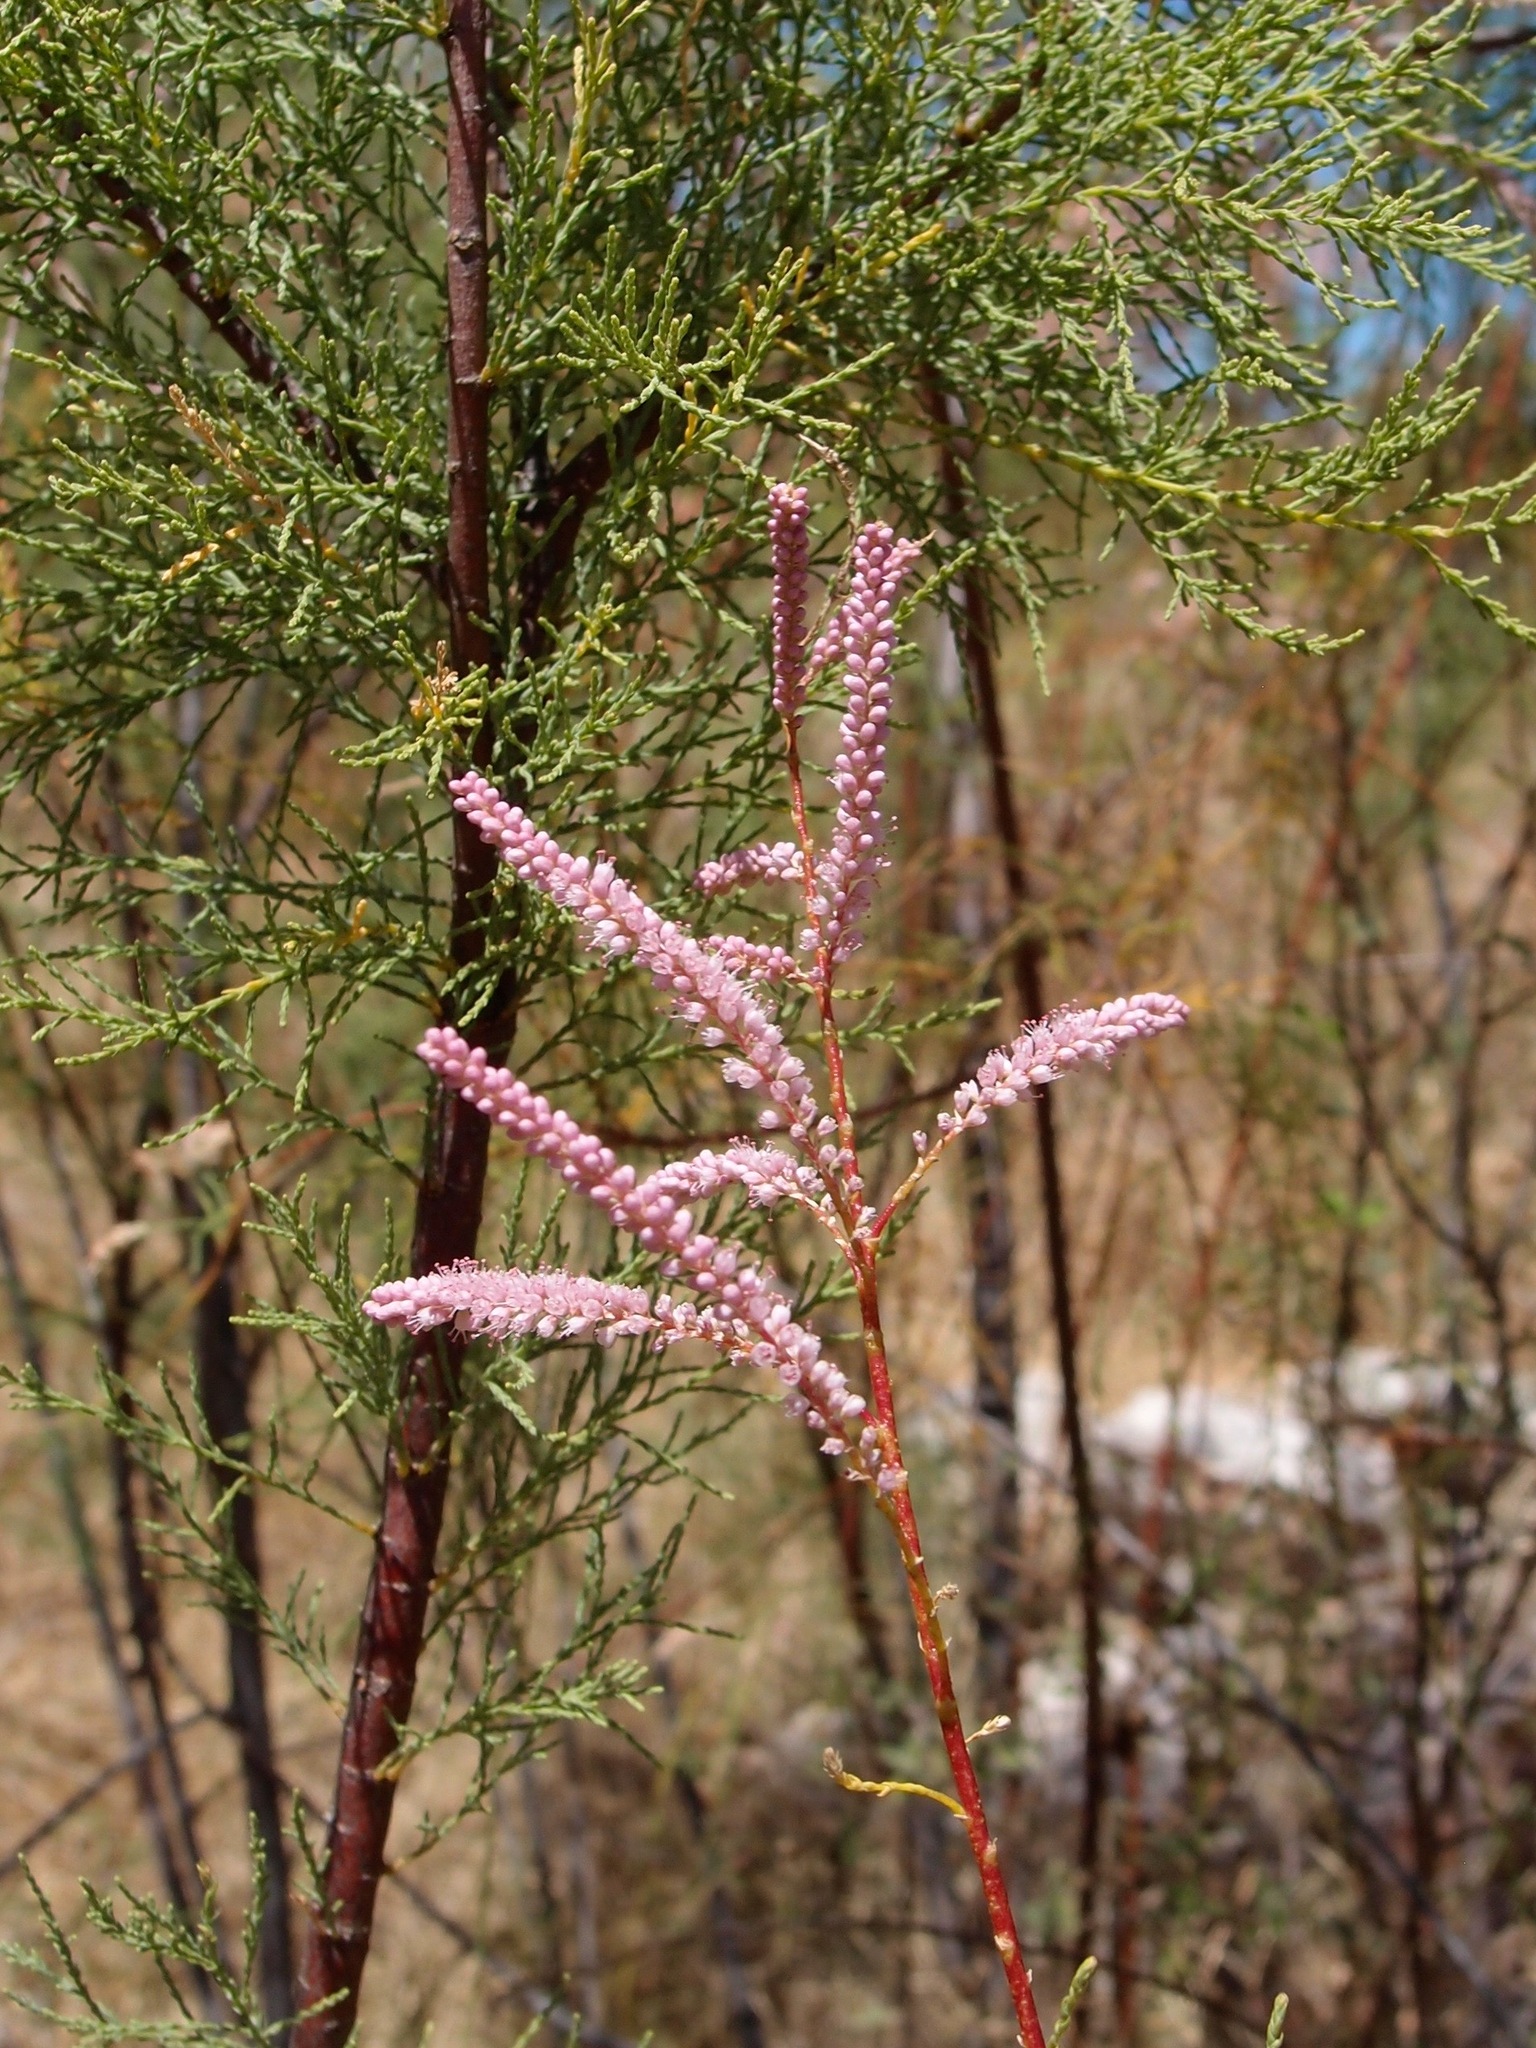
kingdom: Plantae
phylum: Tracheophyta
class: Magnoliopsida
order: Caryophyllales
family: Tamaricaceae
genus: Tamarix
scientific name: Tamarix
